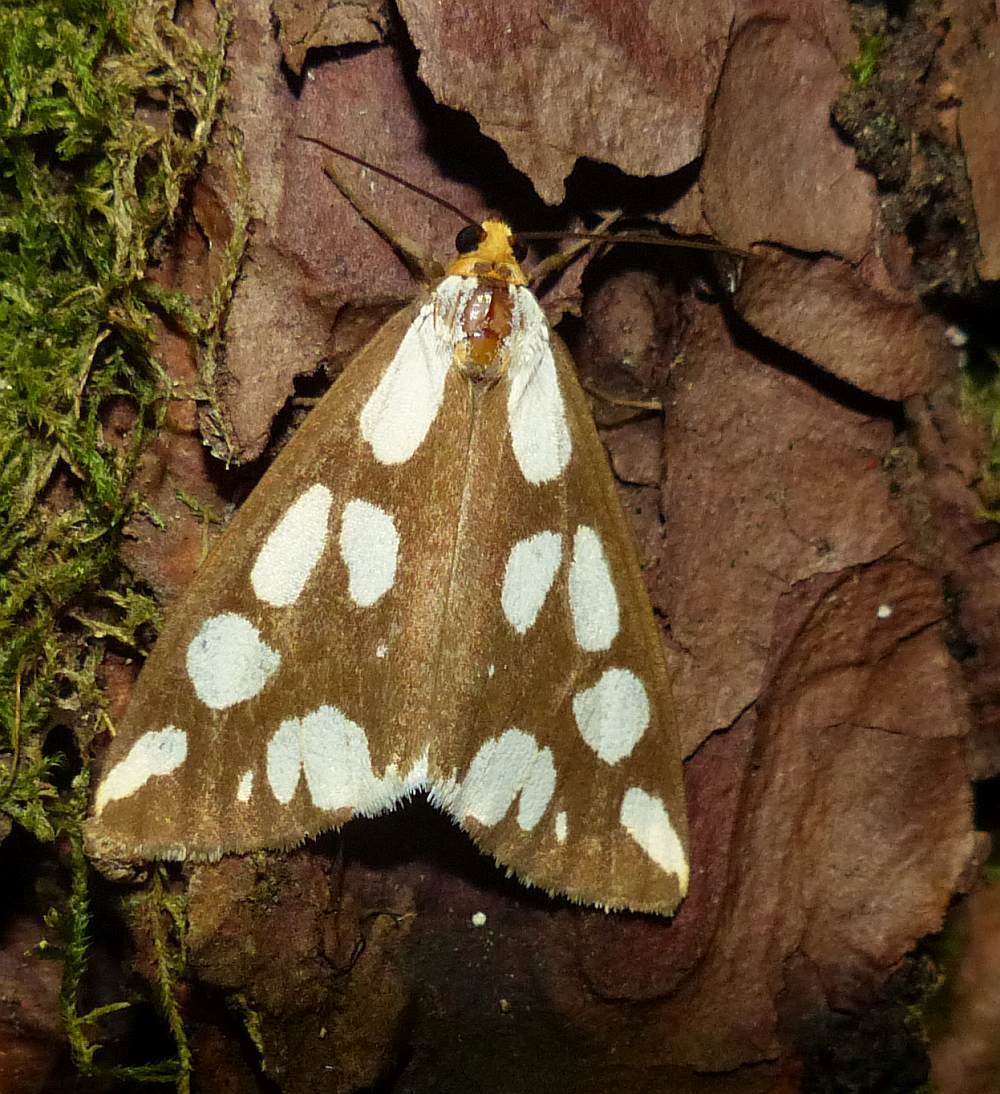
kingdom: Animalia
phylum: Arthropoda
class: Insecta
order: Lepidoptera
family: Erebidae
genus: Haploa
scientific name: Haploa confusa
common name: Confused haploa moth
